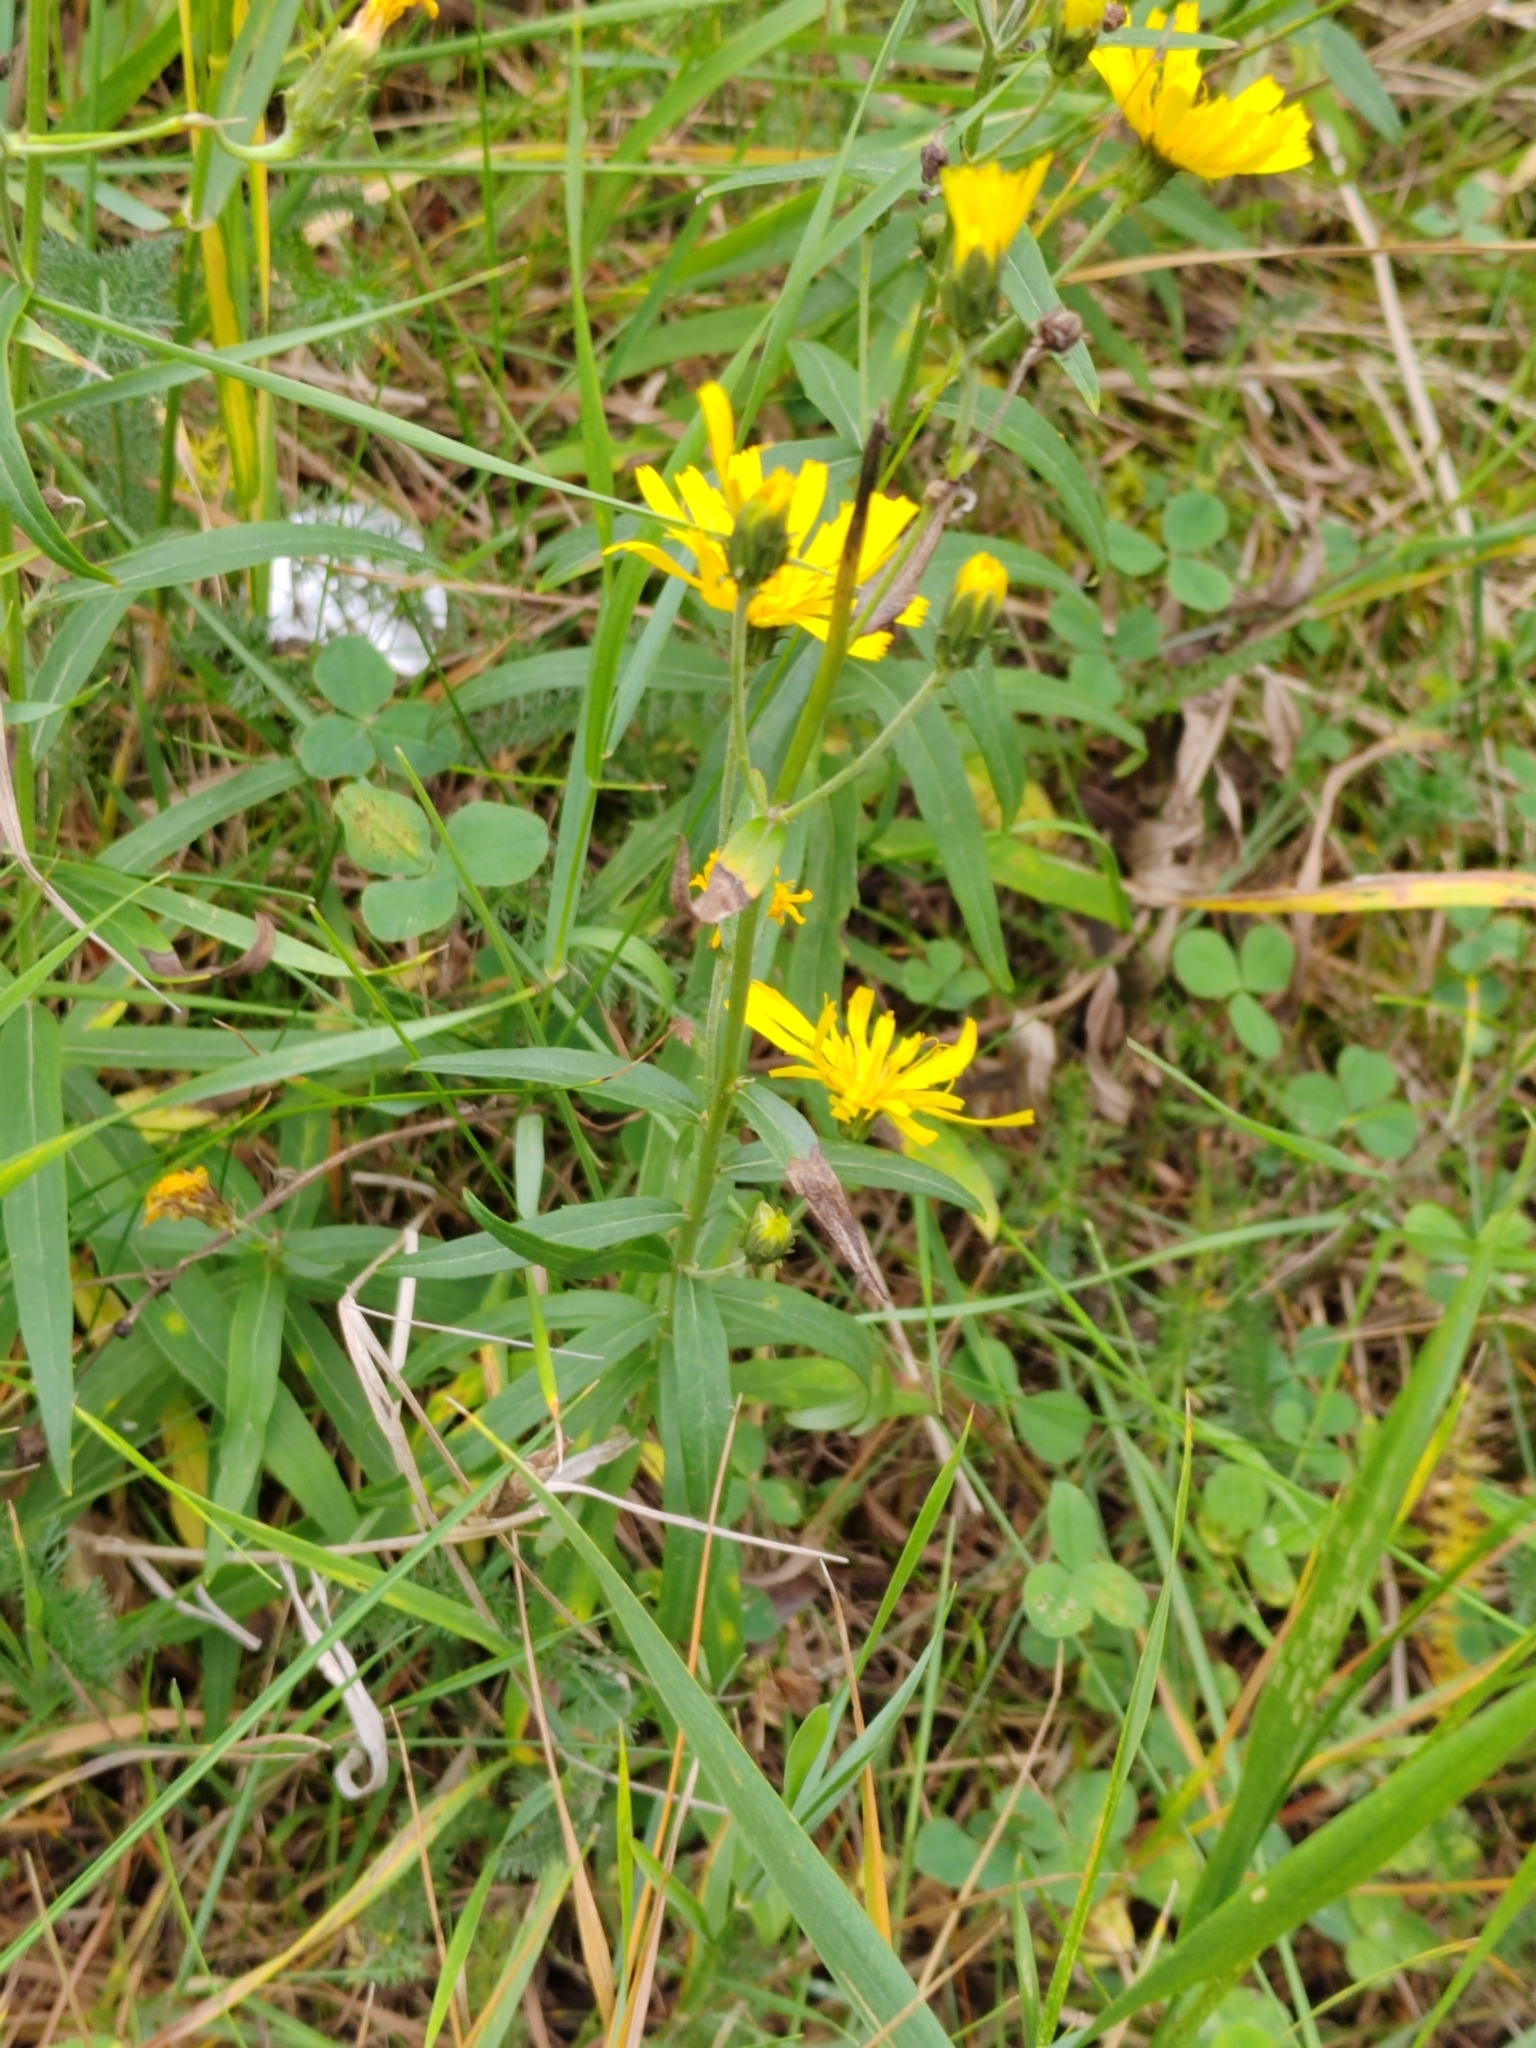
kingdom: Plantae
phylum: Tracheophyta
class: Magnoliopsida
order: Asterales
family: Asteraceae
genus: Hieracium
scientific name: Hieracium umbellatum
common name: Northern hawkweed
